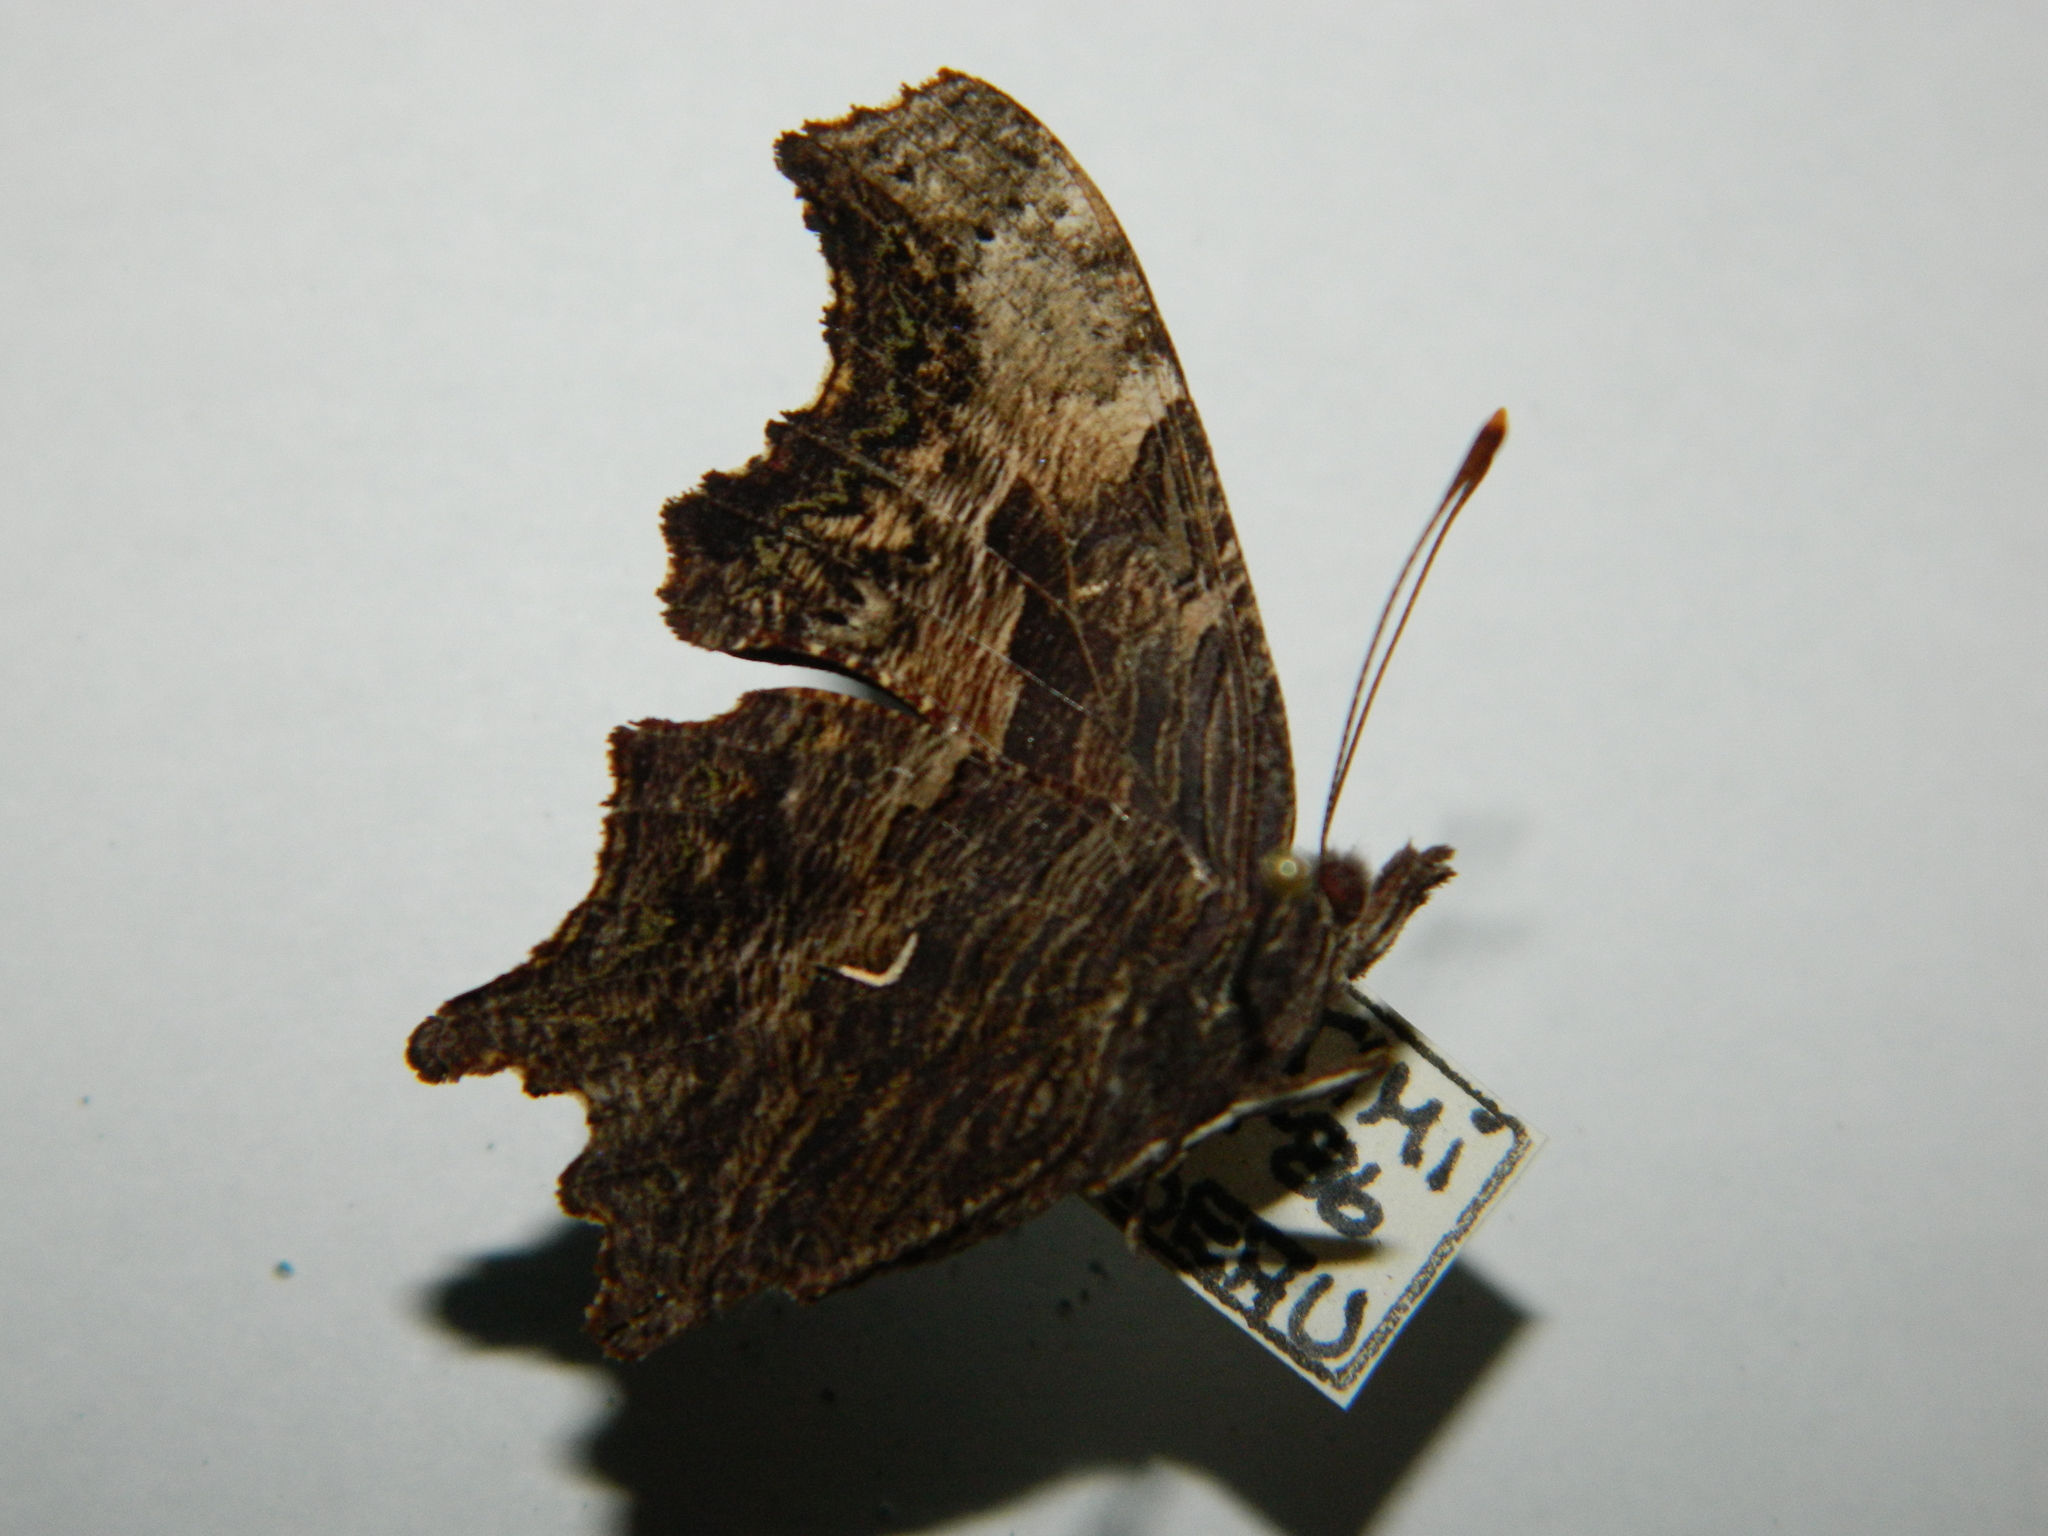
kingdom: Animalia
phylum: Arthropoda
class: Insecta
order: Lepidoptera
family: Nymphalidae
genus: Polygonia
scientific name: Polygonia progne
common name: Gray comma
